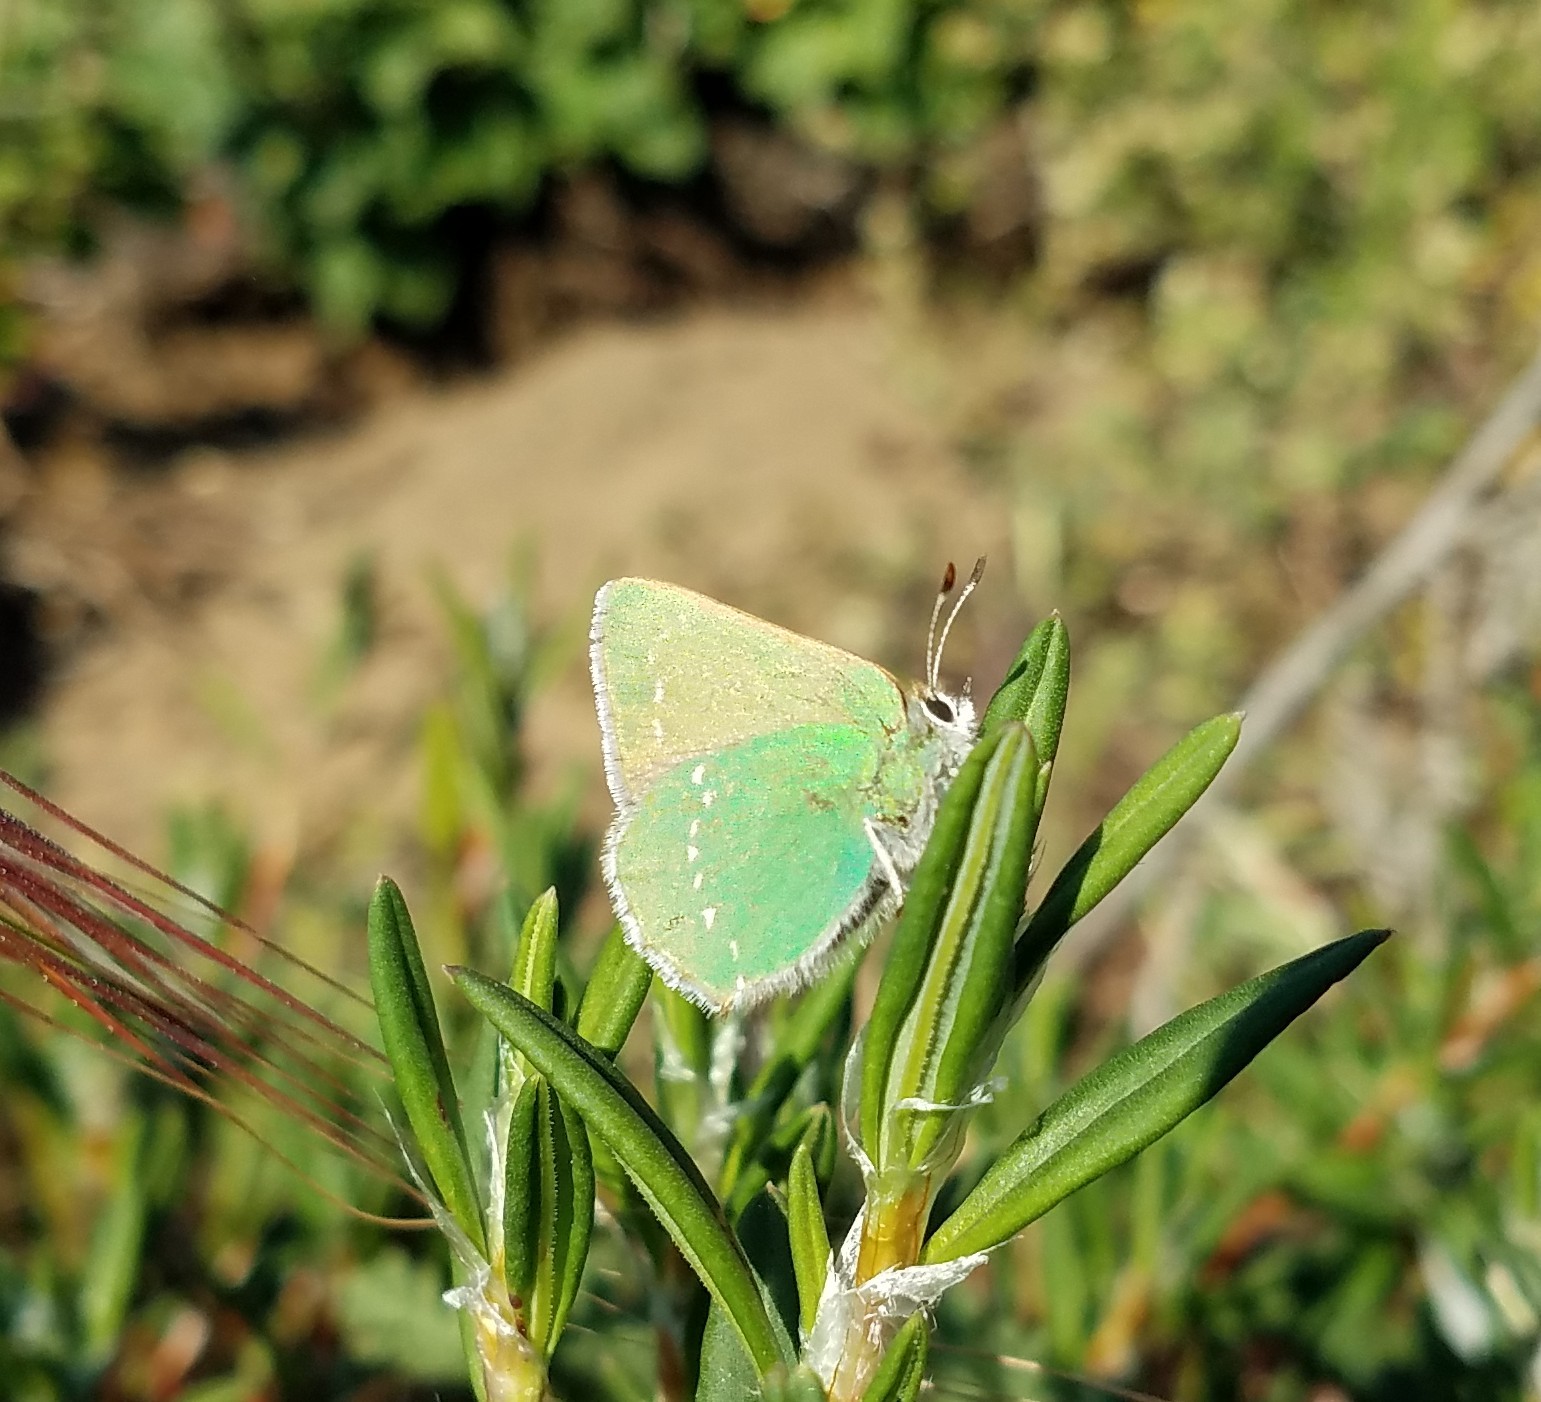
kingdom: Animalia
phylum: Arthropoda
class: Insecta
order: Lepidoptera
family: Lycaenidae
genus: Callophrys
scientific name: Callophrys viridis
